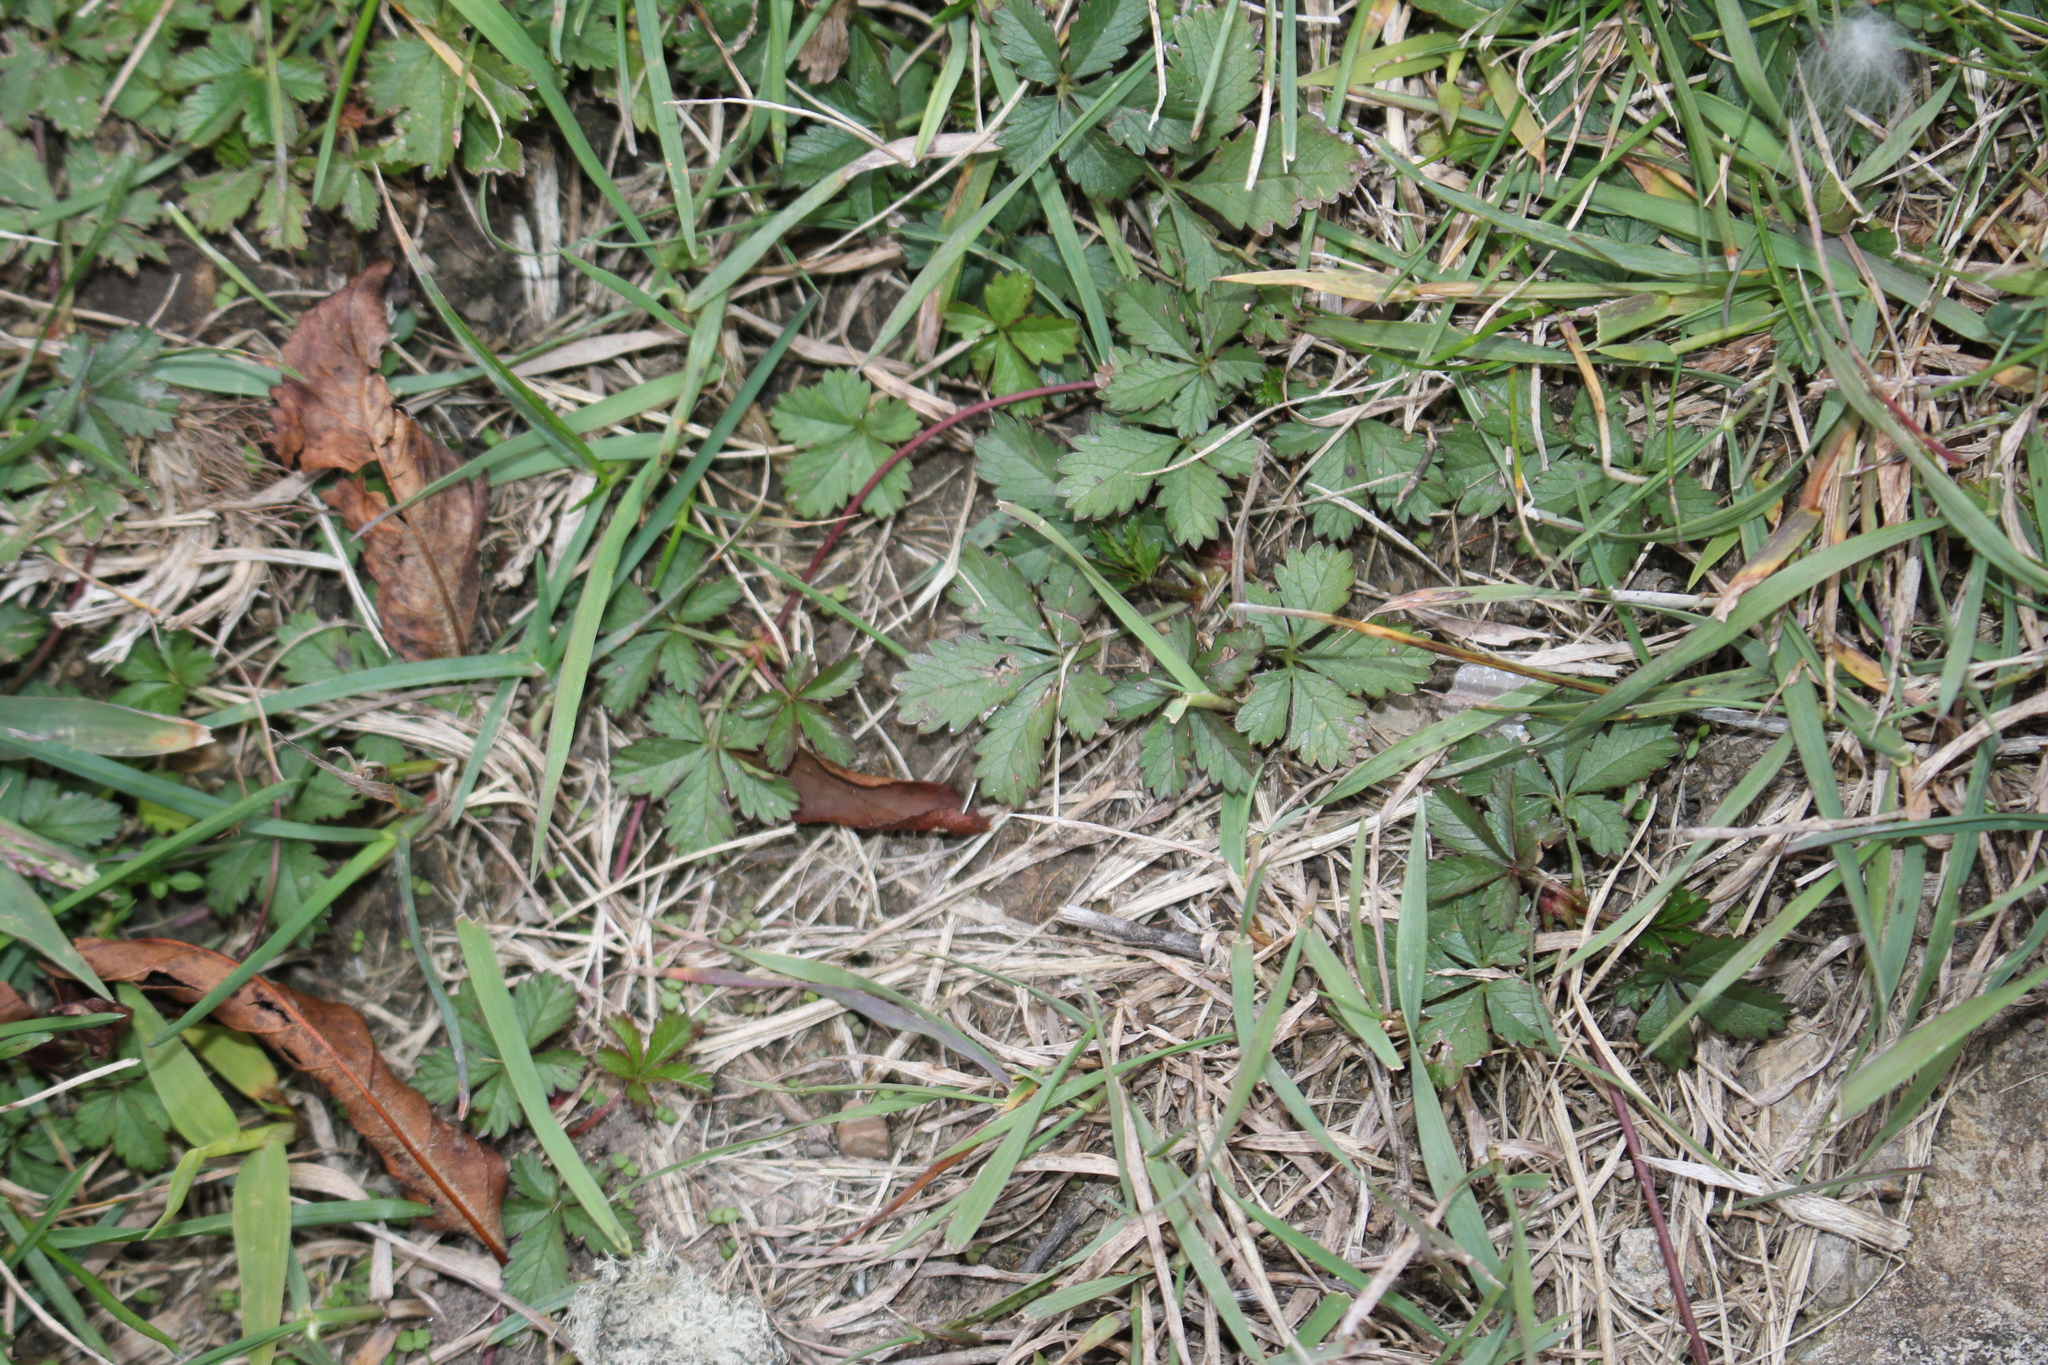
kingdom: Plantae
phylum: Tracheophyta
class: Magnoliopsida
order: Rosales
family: Rosaceae
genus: Potentilla
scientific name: Potentilla reptans
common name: Creeping cinquefoil
